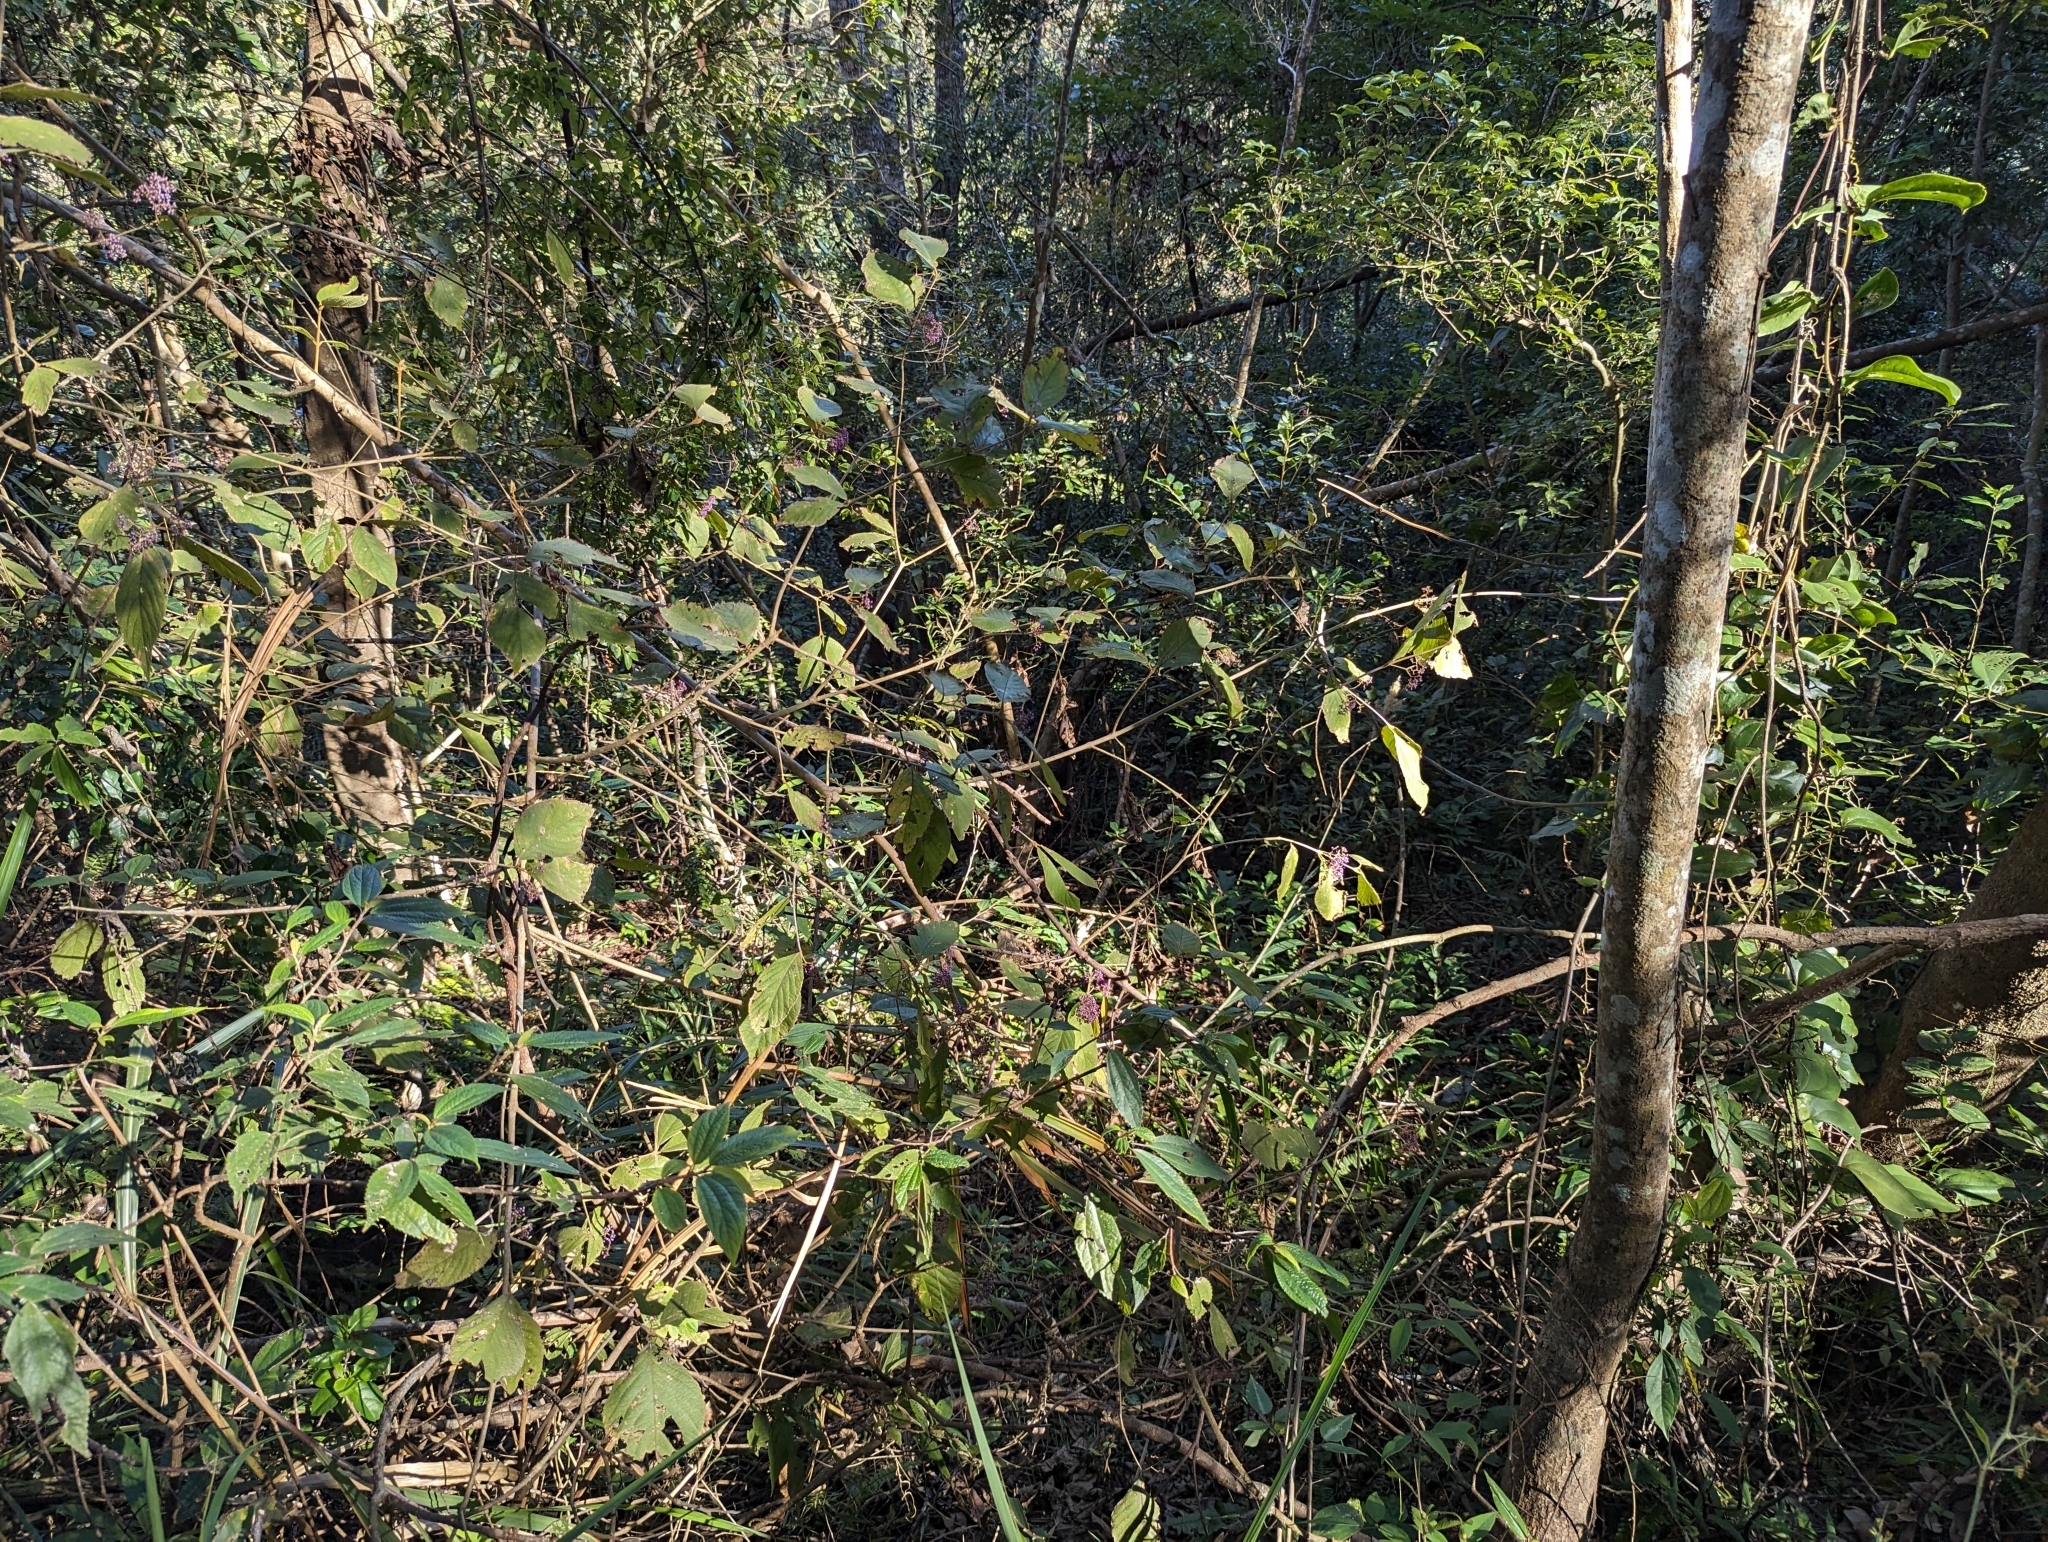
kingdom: Plantae
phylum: Tracheophyta
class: Magnoliopsida
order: Lamiales
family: Lamiaceae
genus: Callicarpa
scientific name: Callicarpa pedunculata
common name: Velvetleaf
